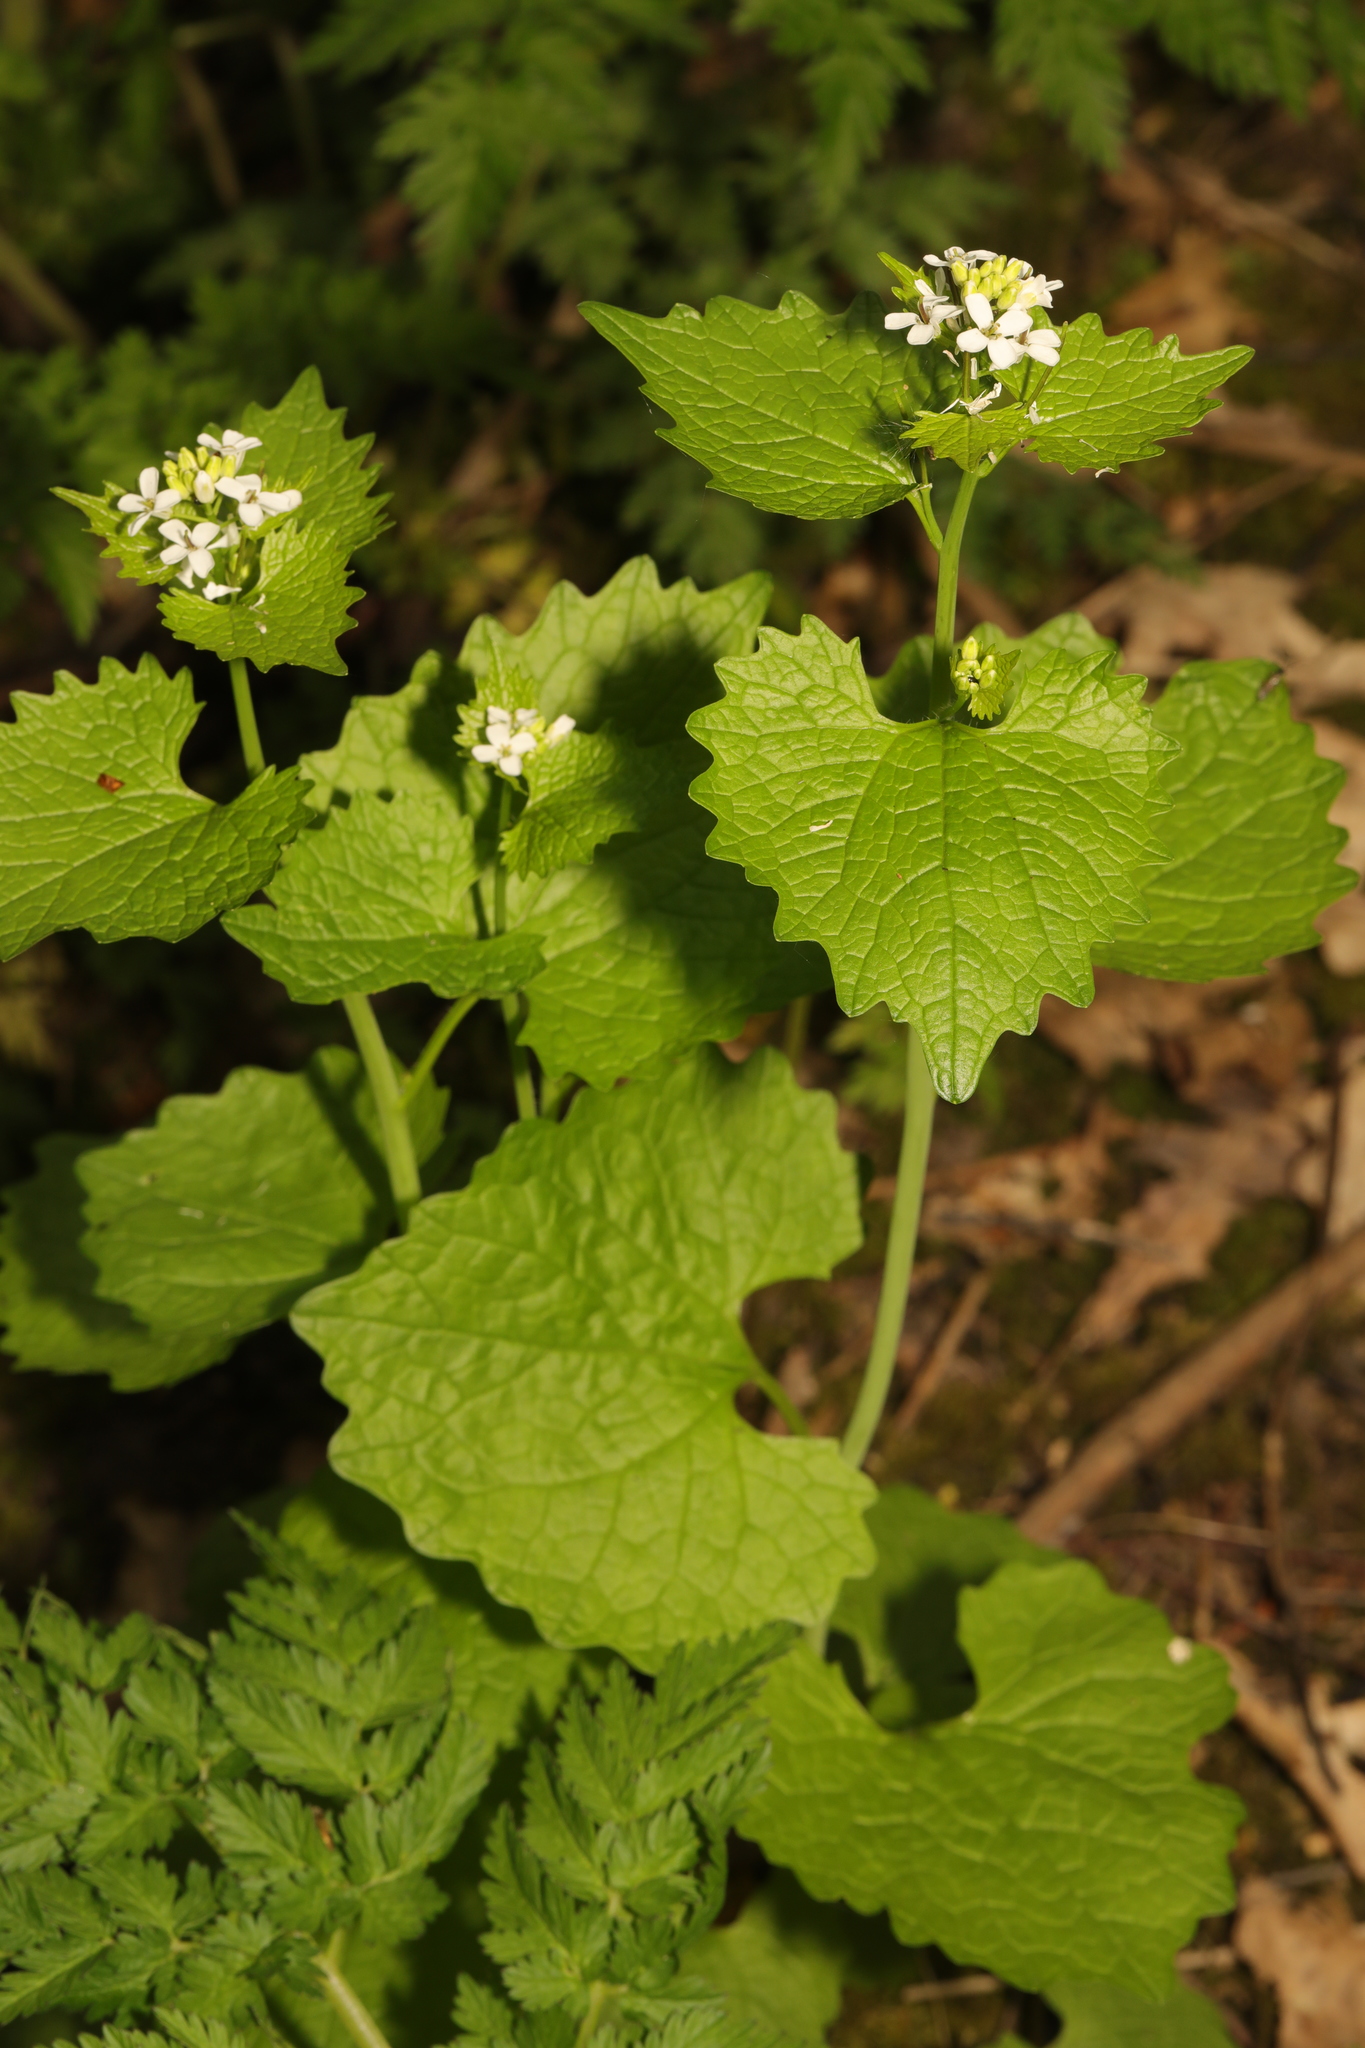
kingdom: Plantae
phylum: Tracheophyta
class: Magnoliopsida
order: Brassicales
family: Brassicaceae
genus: Alliaria
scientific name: Alliaria petiolata
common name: Garlic mustard
